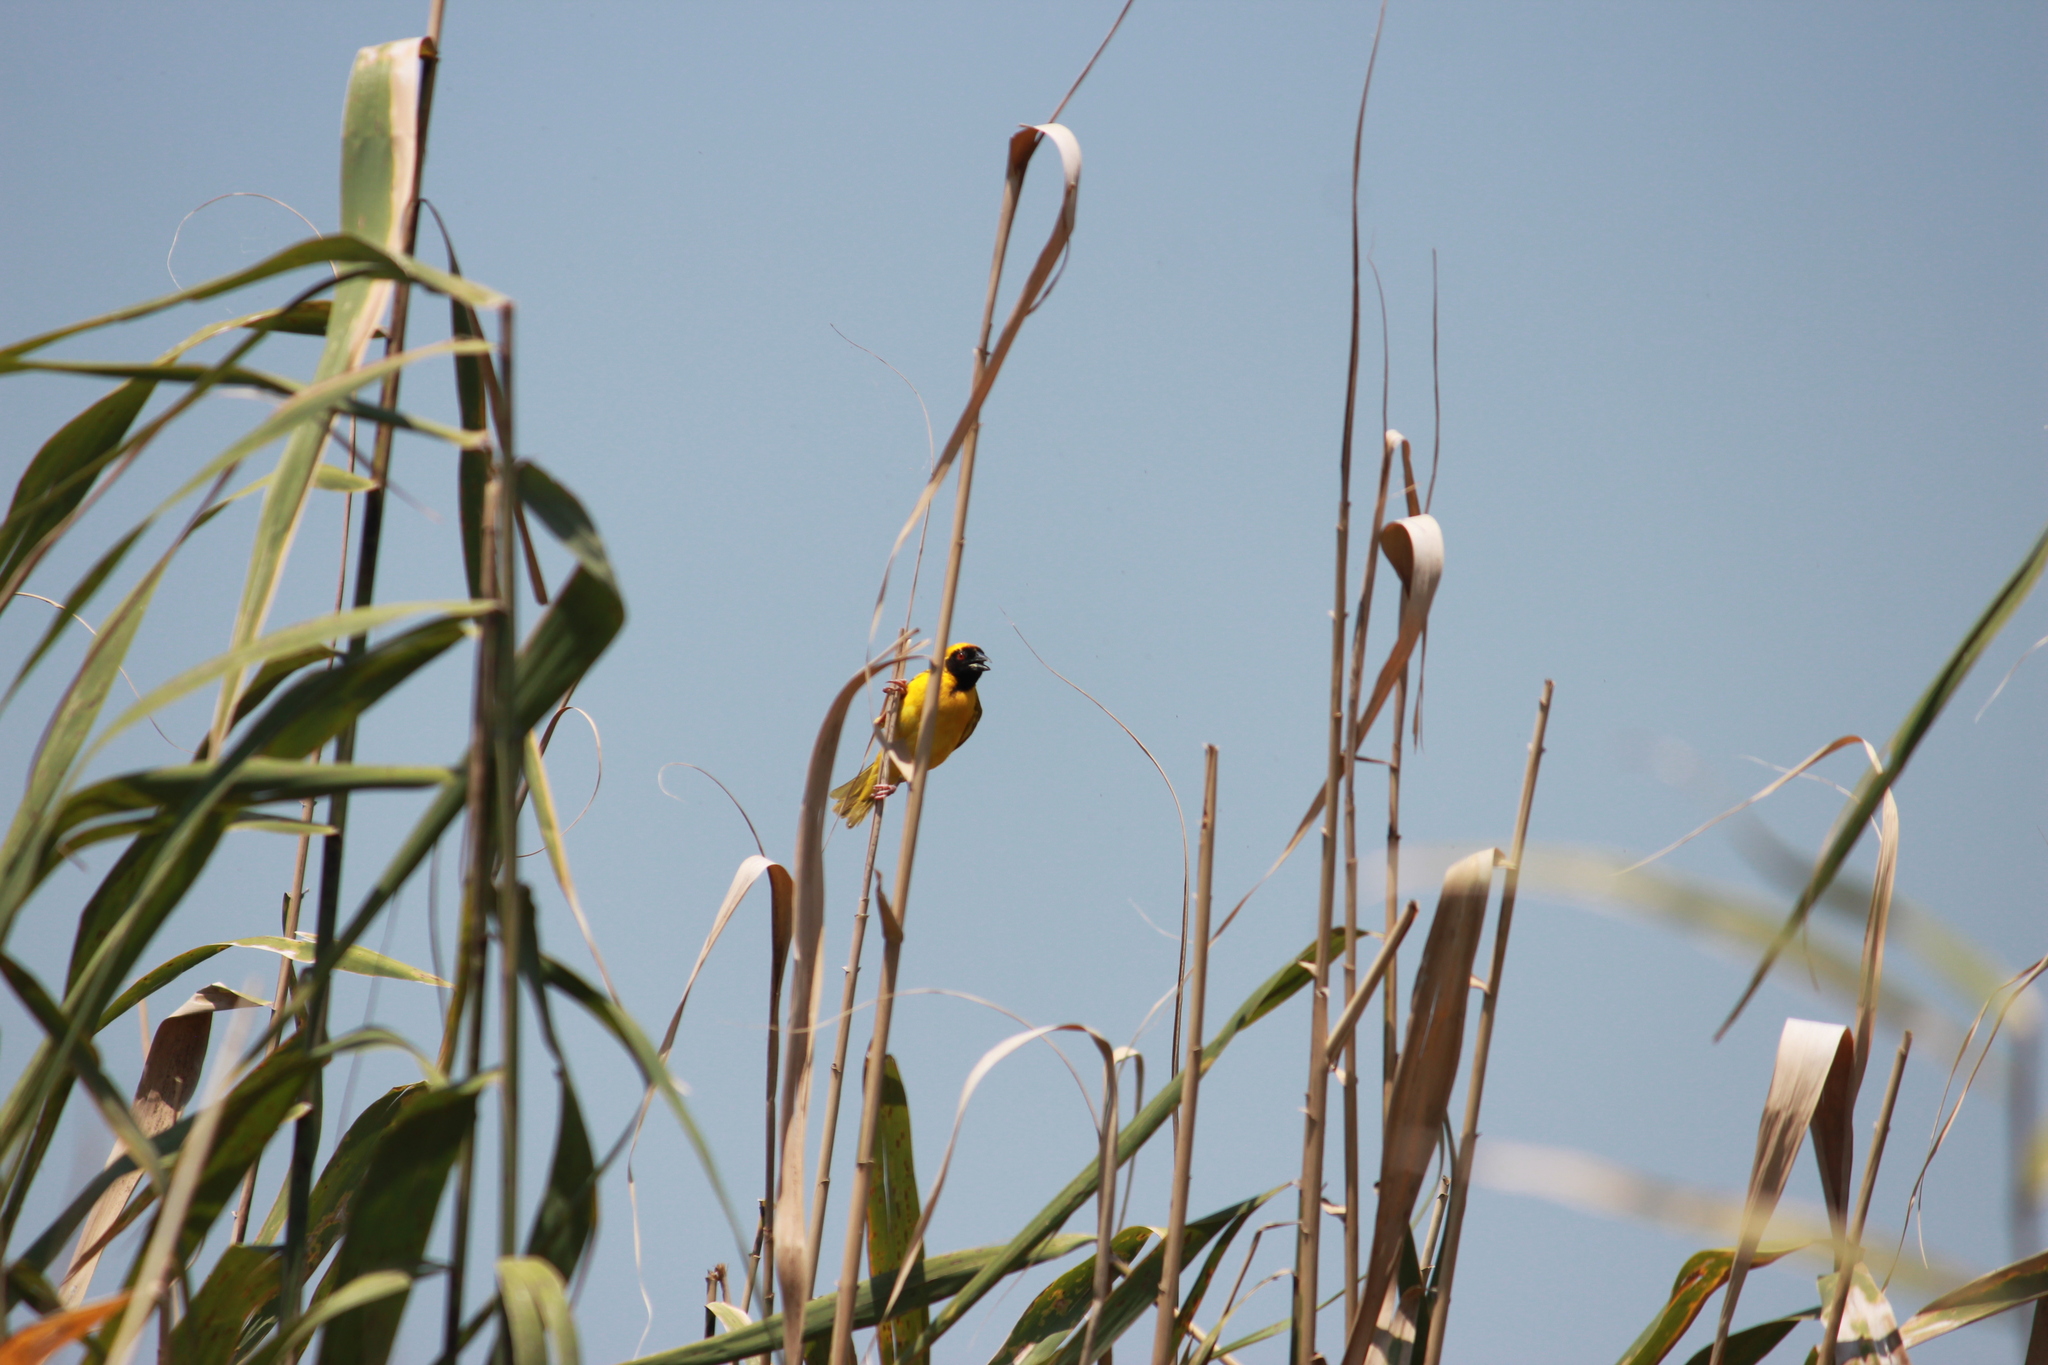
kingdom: Animalia
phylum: Chordata
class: Aves
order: Passeriformes
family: Ploceidae
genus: Ploceus
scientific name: Ploceus velatus
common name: Southern masked weaver
